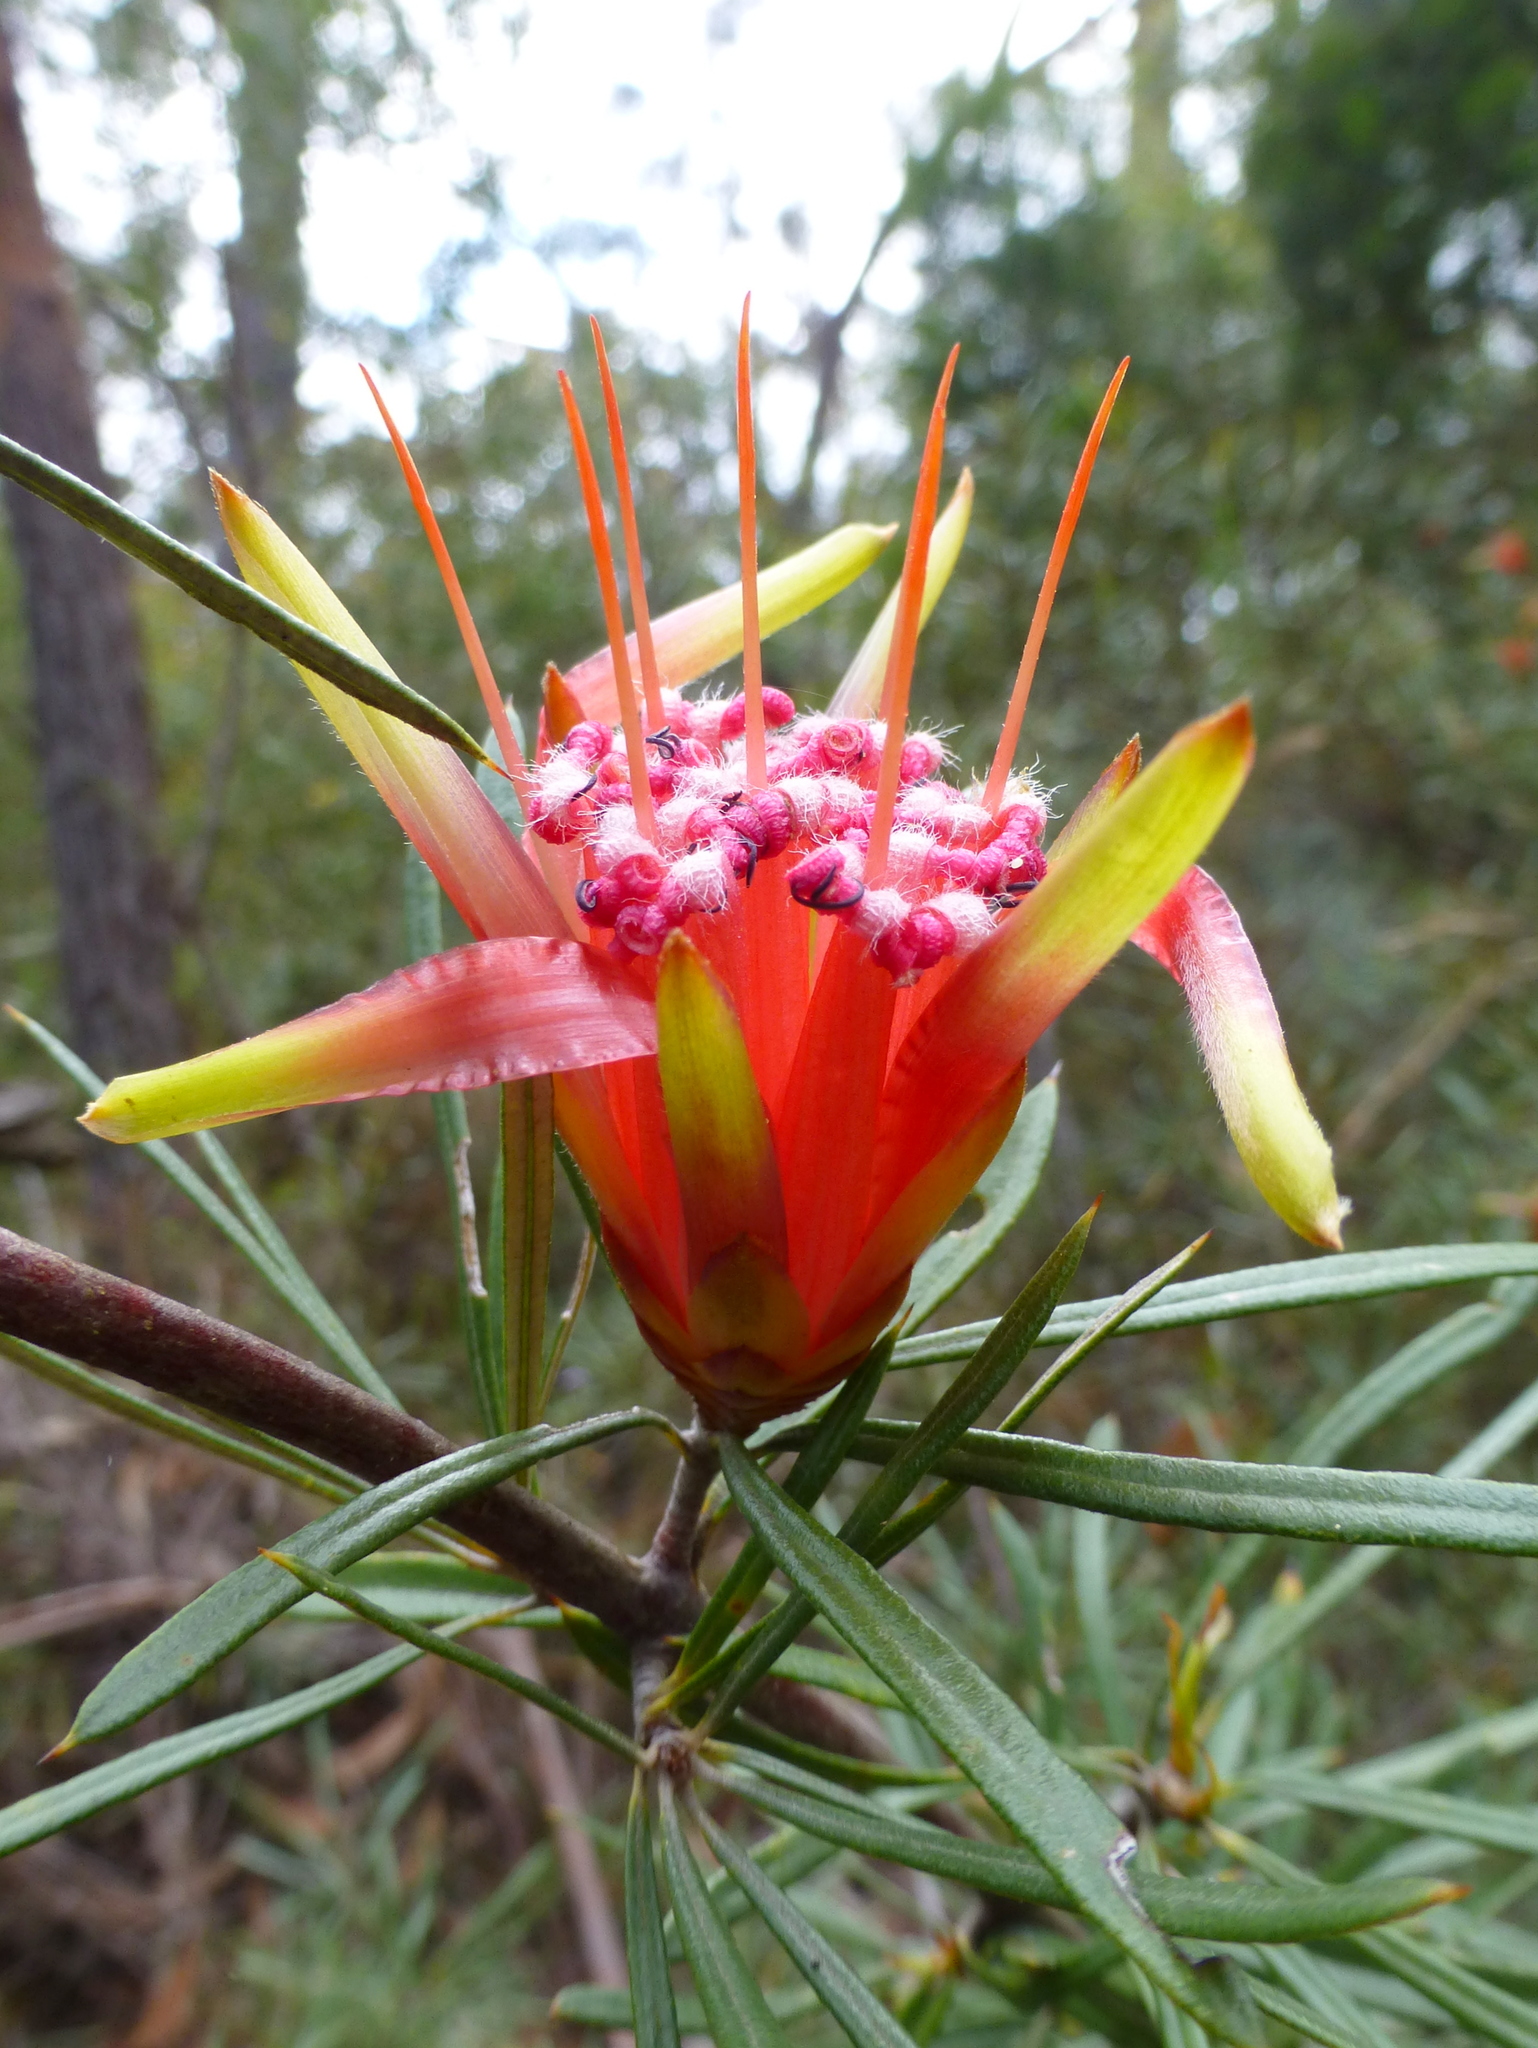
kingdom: Plantae
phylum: Tracheophyta
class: Magnoliopsida
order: Proteales
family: Proteaceae
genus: Lambertia
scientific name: Lambertia formosa
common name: Mountain-devil
